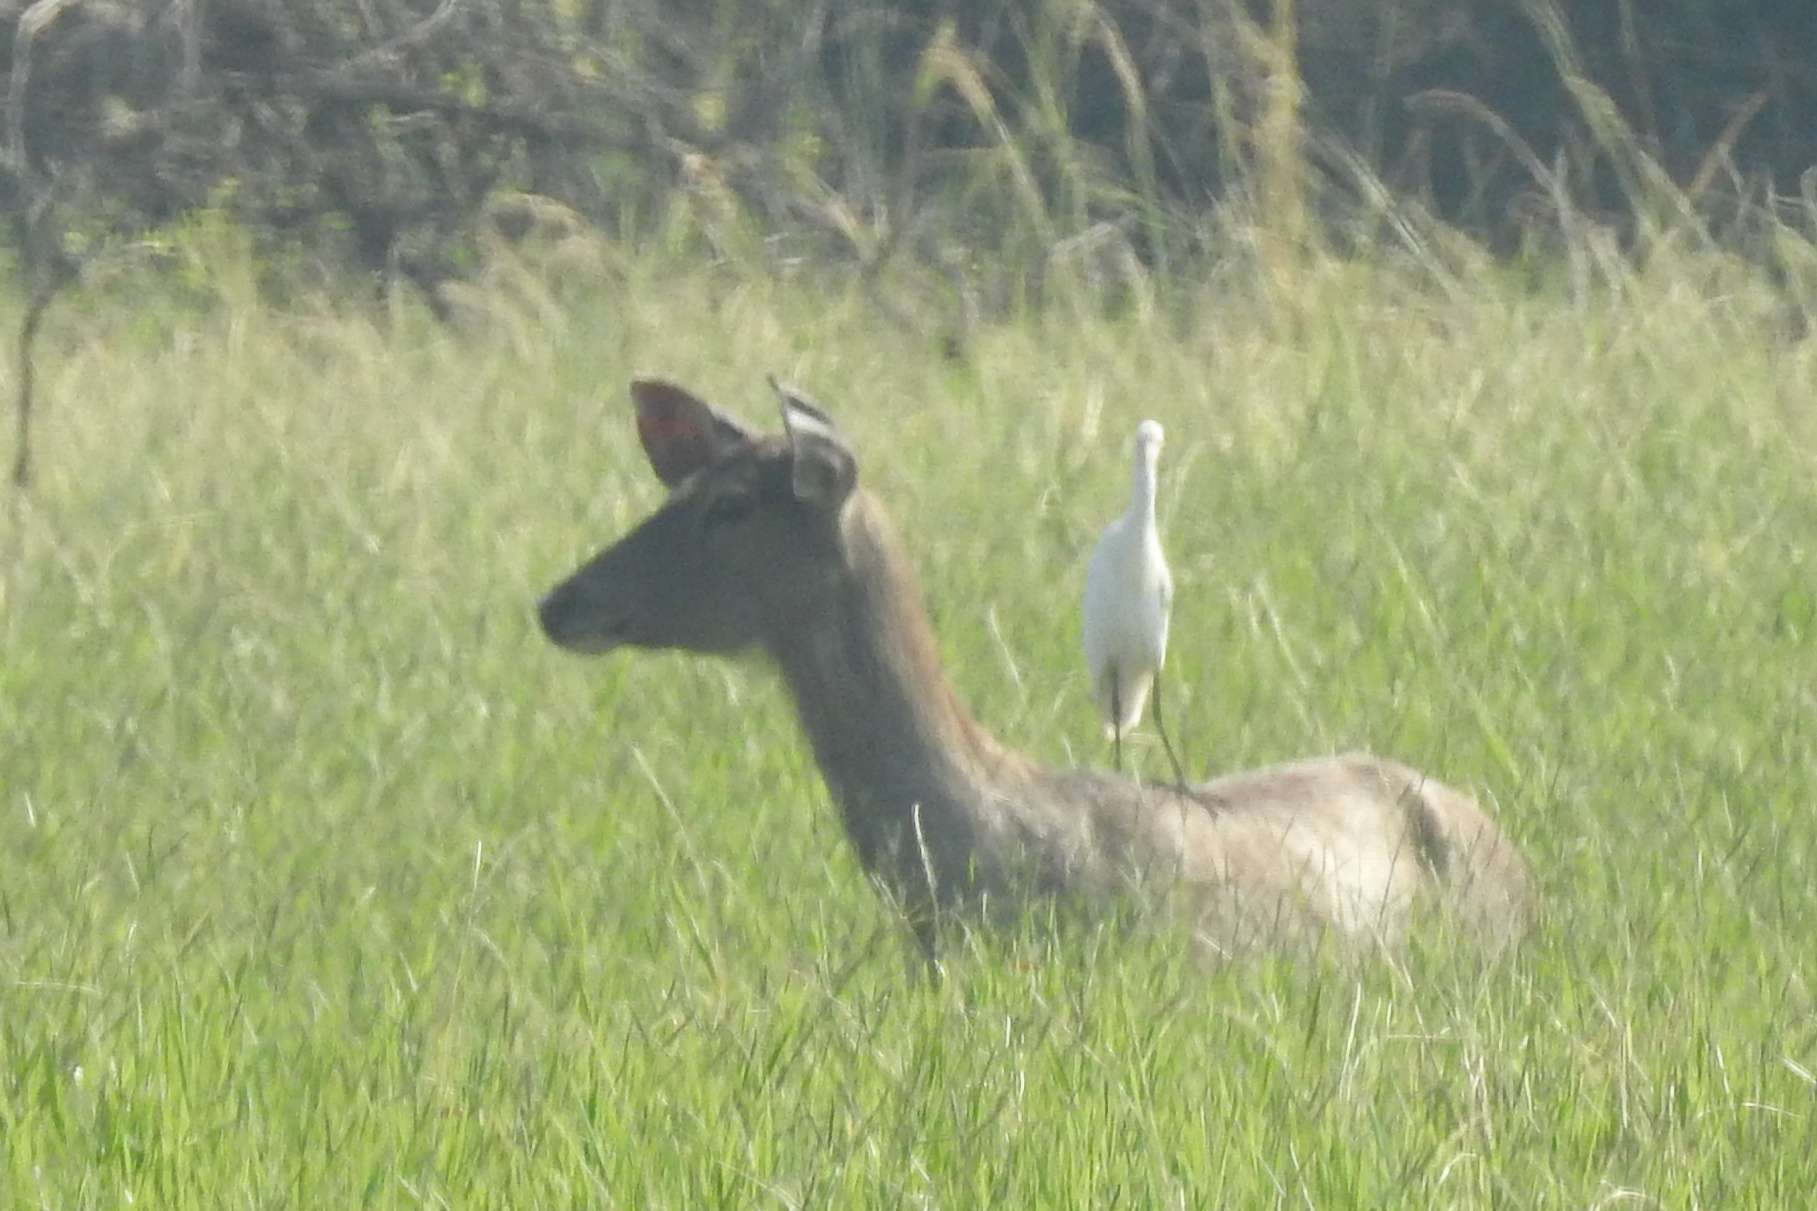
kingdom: Animalia
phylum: Chordata
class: Mammalia
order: Artiodactyla
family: Cervidae
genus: Rusa
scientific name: Rusa unicolor
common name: Sambar
